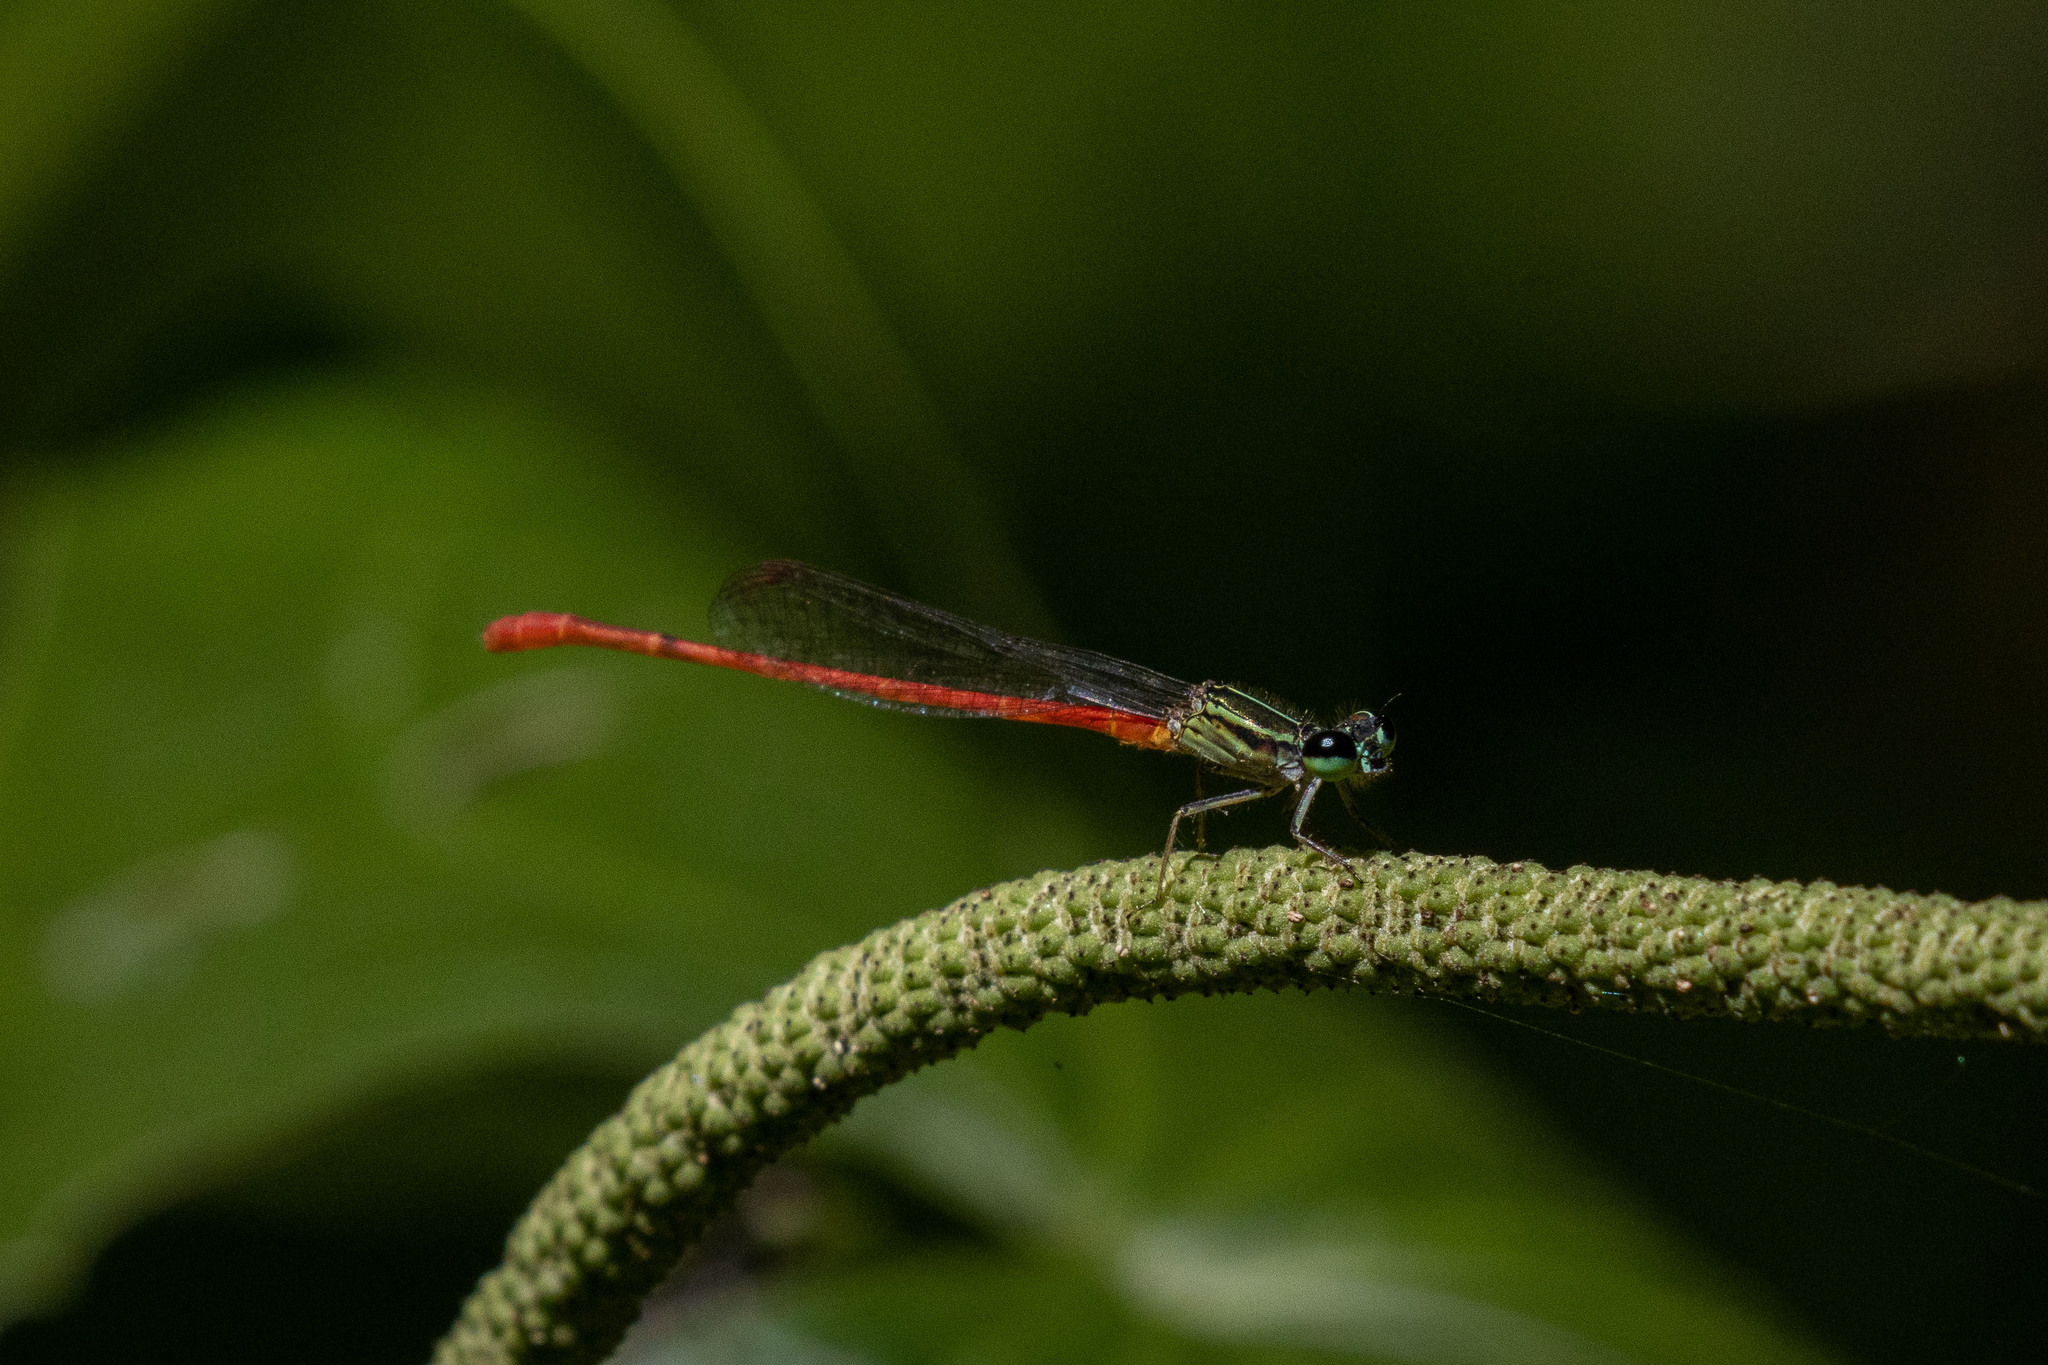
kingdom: Animalia
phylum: Arthropoda
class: Insecta
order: Odonata
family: Coenagrionidae
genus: Telebasis
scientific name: Telebasis filiola
